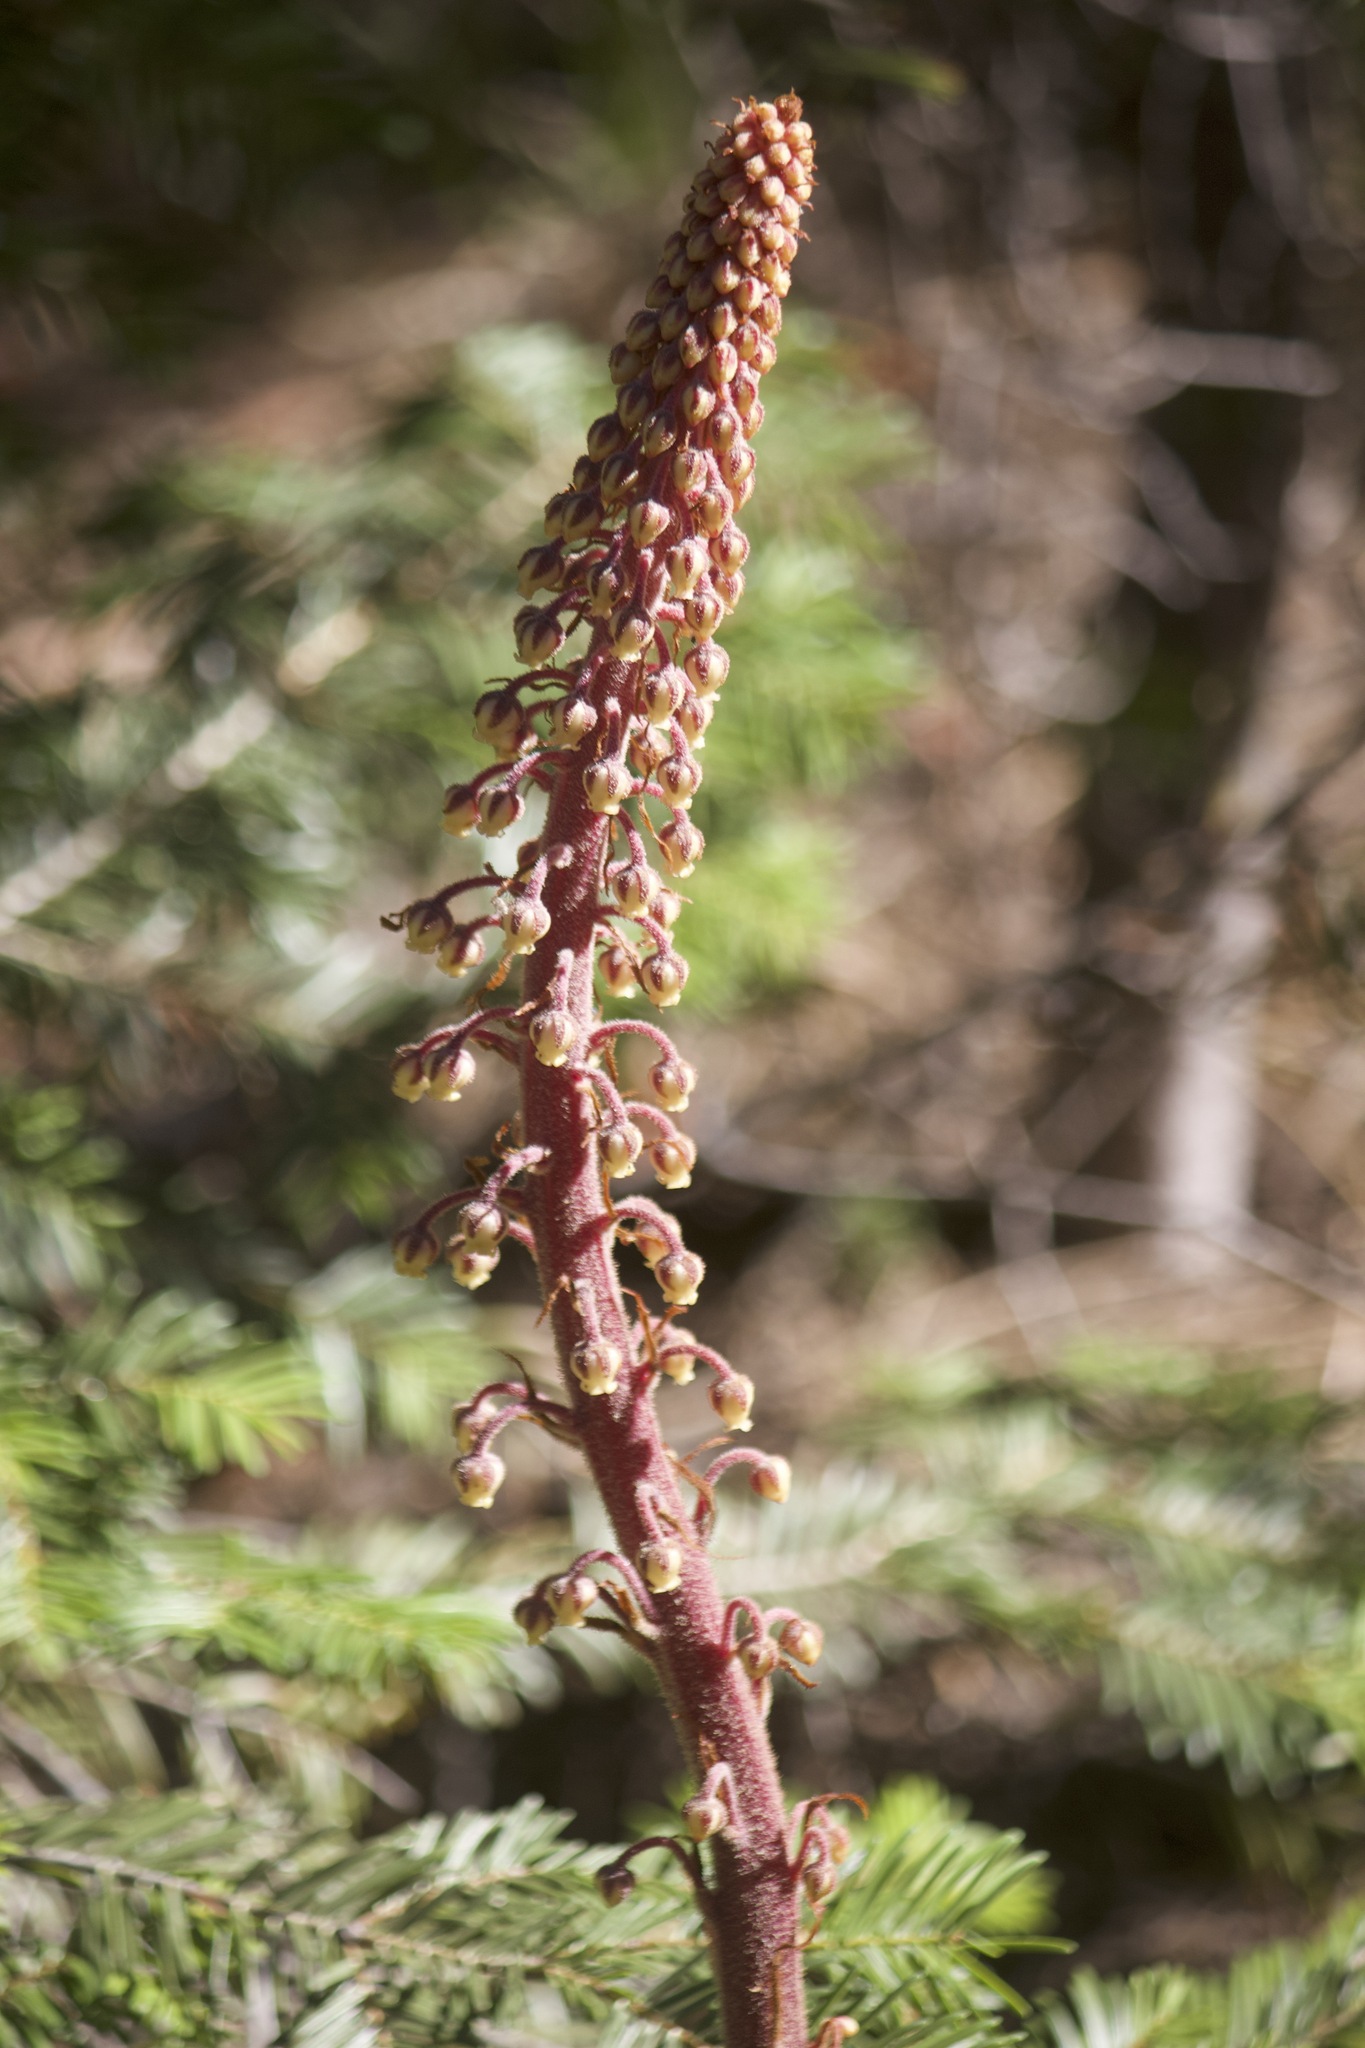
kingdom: Plantae
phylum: Tracheophyta
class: Magnoliopsida
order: Ericales
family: Ericaceae
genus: Pterospora
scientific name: Pterospora andromedea
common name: Giant bird's-nest
